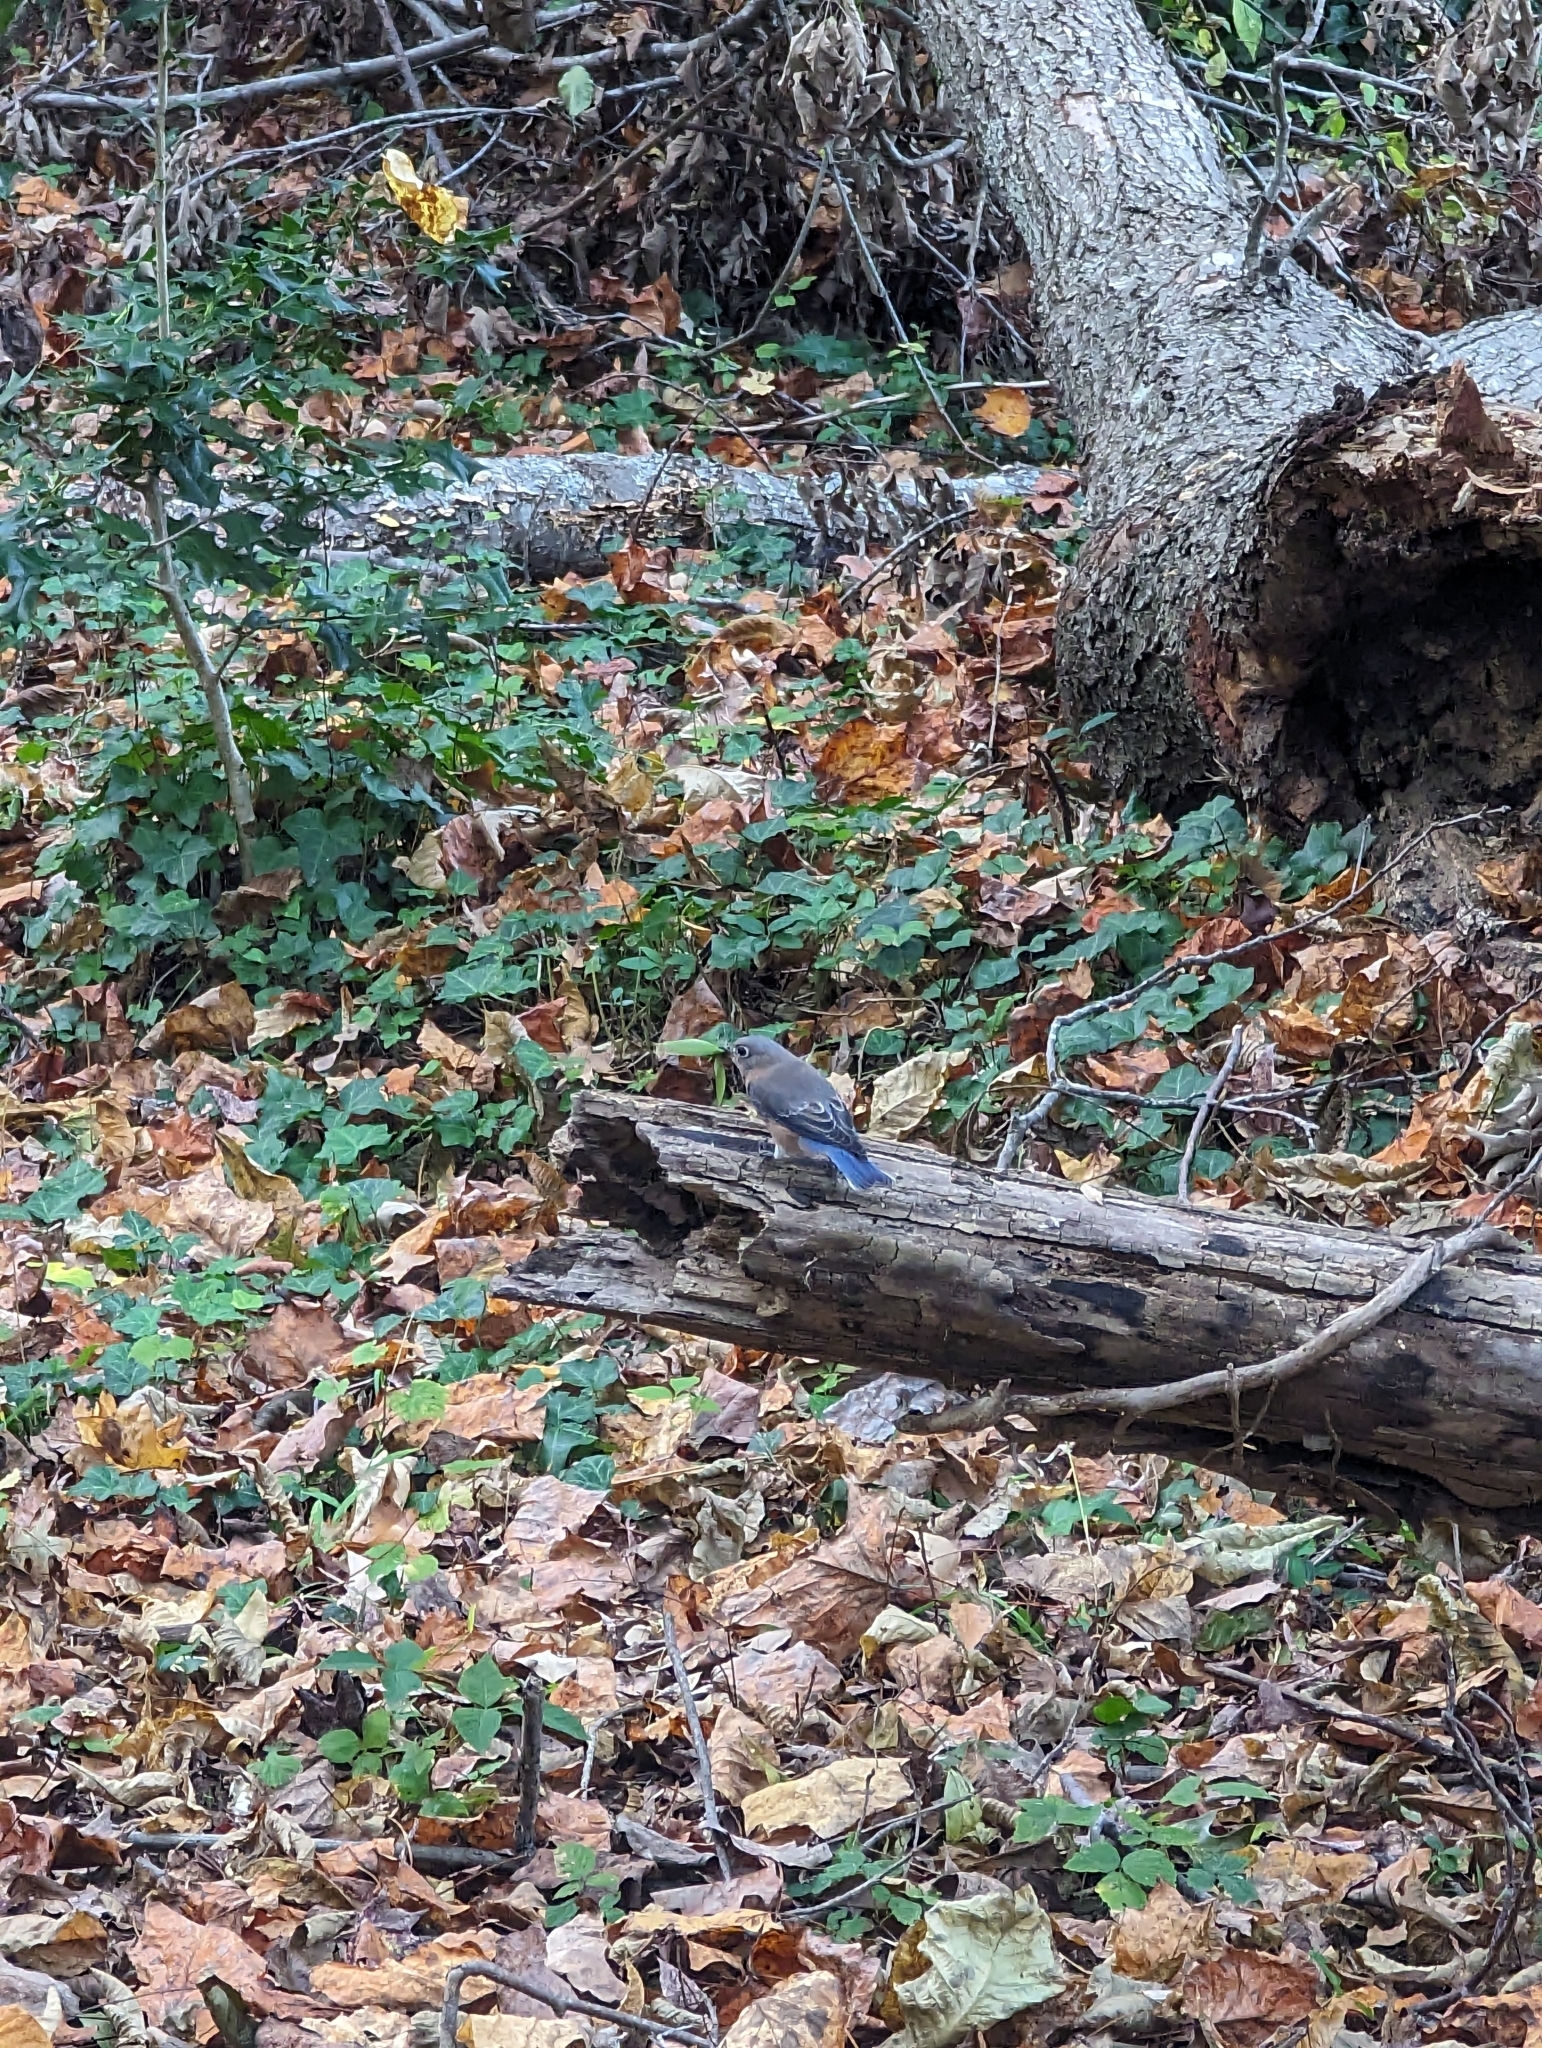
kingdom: Animalia
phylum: Chordata
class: Aves
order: Passeriformes
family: Turdidae
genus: Sialia
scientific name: Sialia sialis
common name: Eastern bluebird
